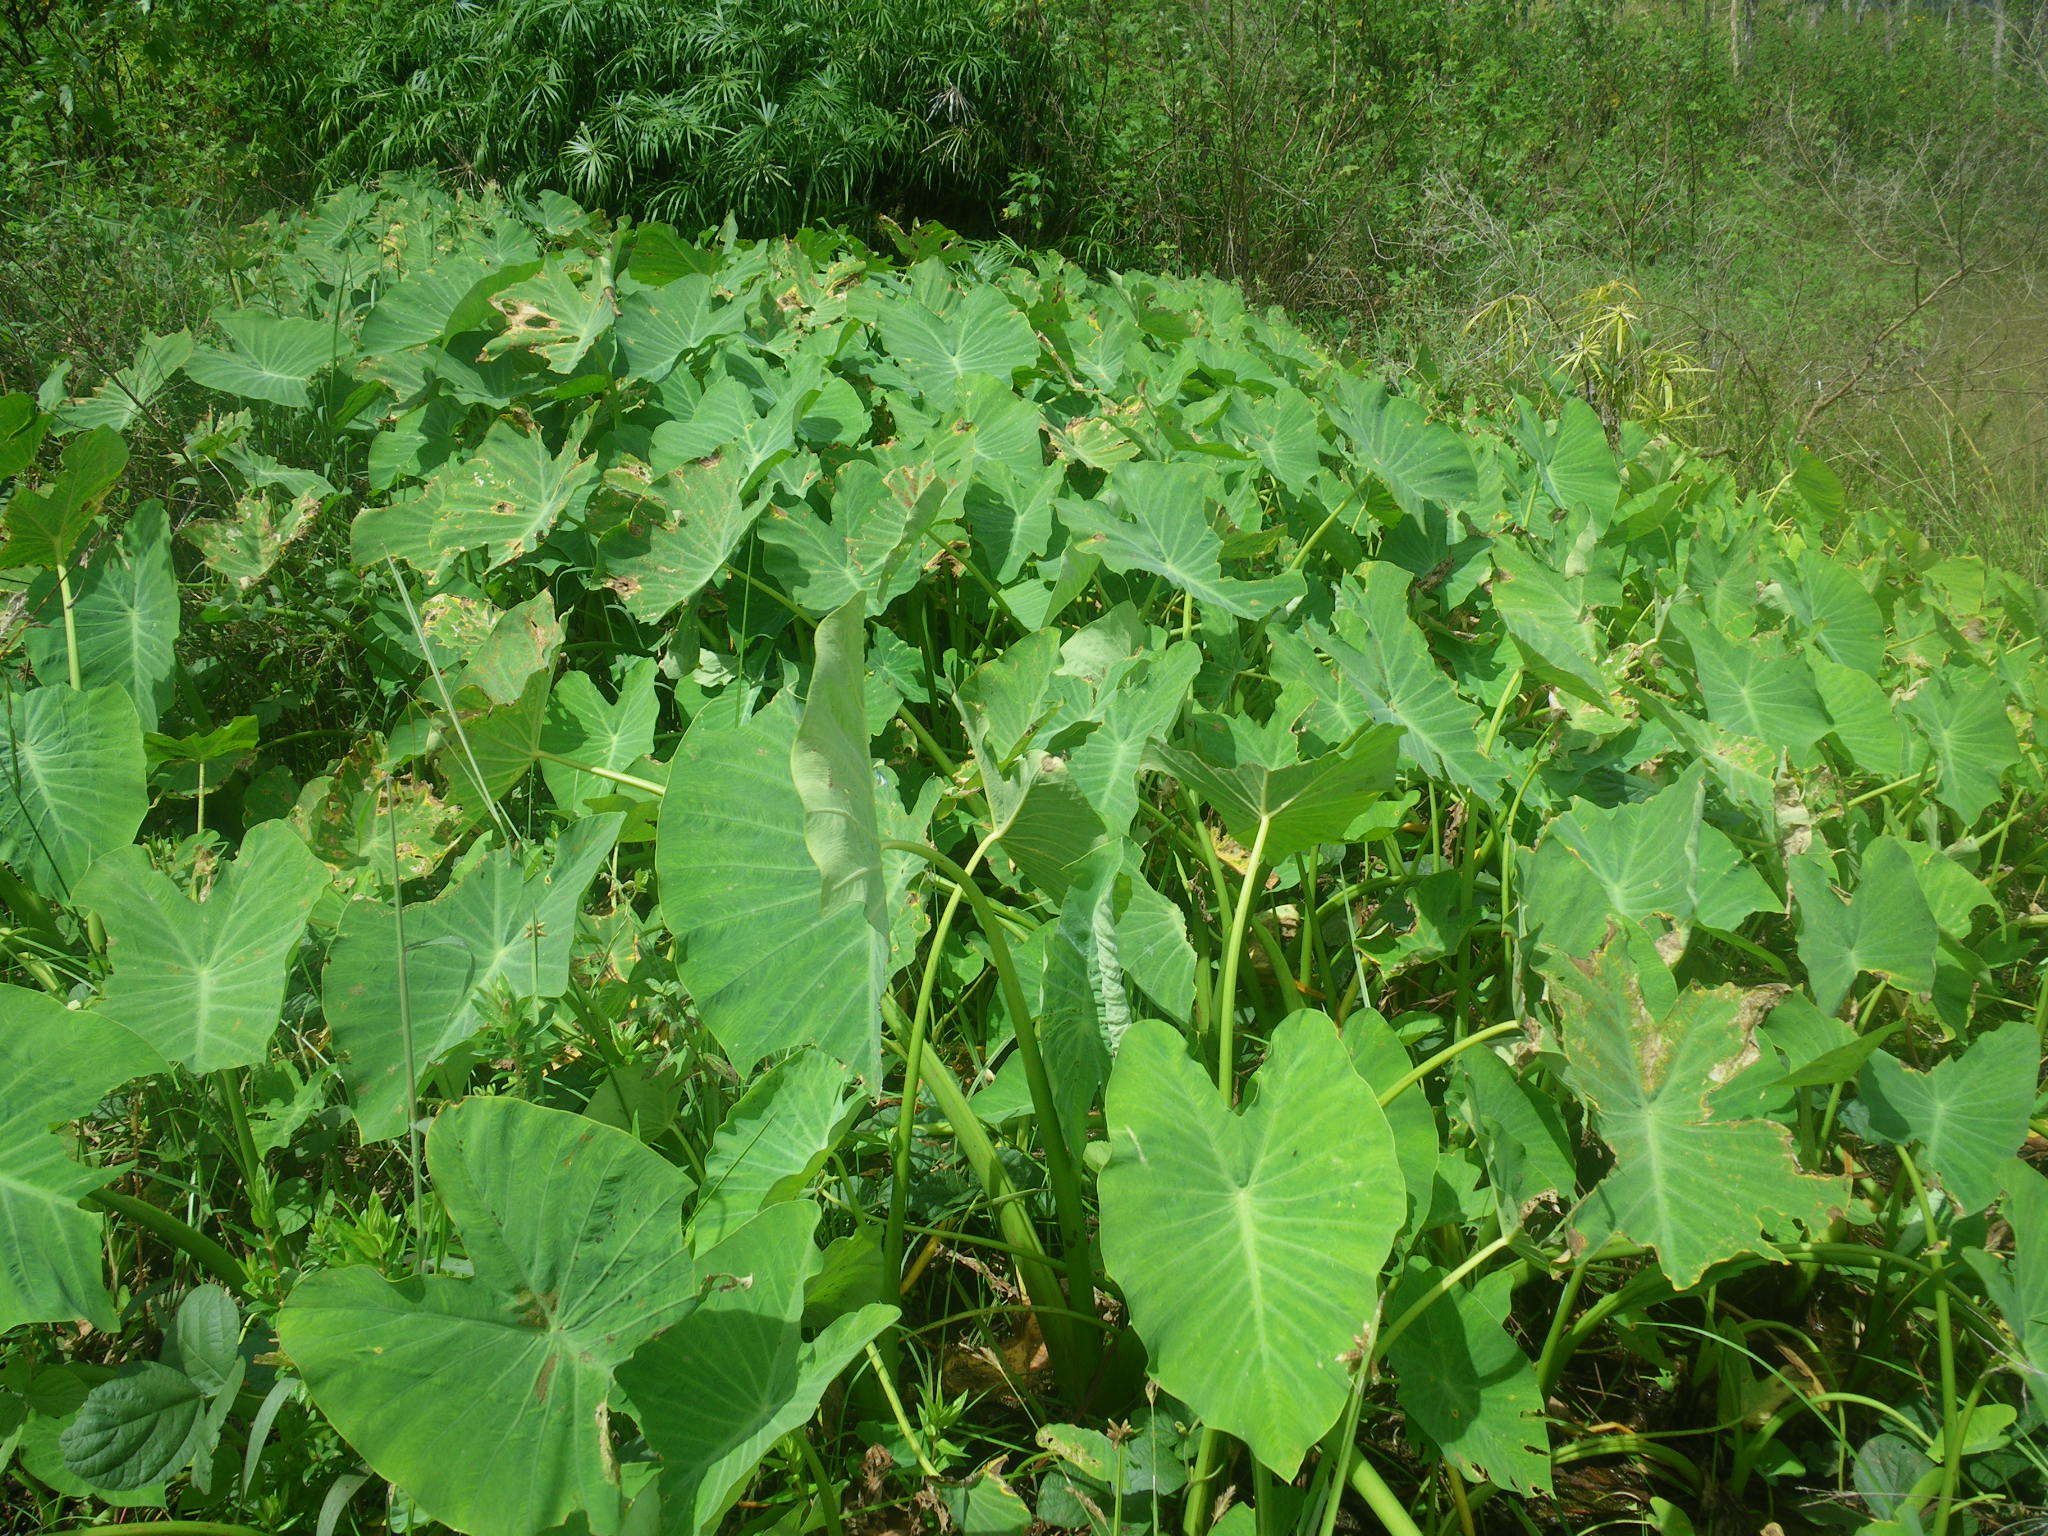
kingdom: Plantae
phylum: Tracheophyta
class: Liliopsida
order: Alismatales
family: Araceae
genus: Colocasia
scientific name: Colocasia esculenta
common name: Taro
